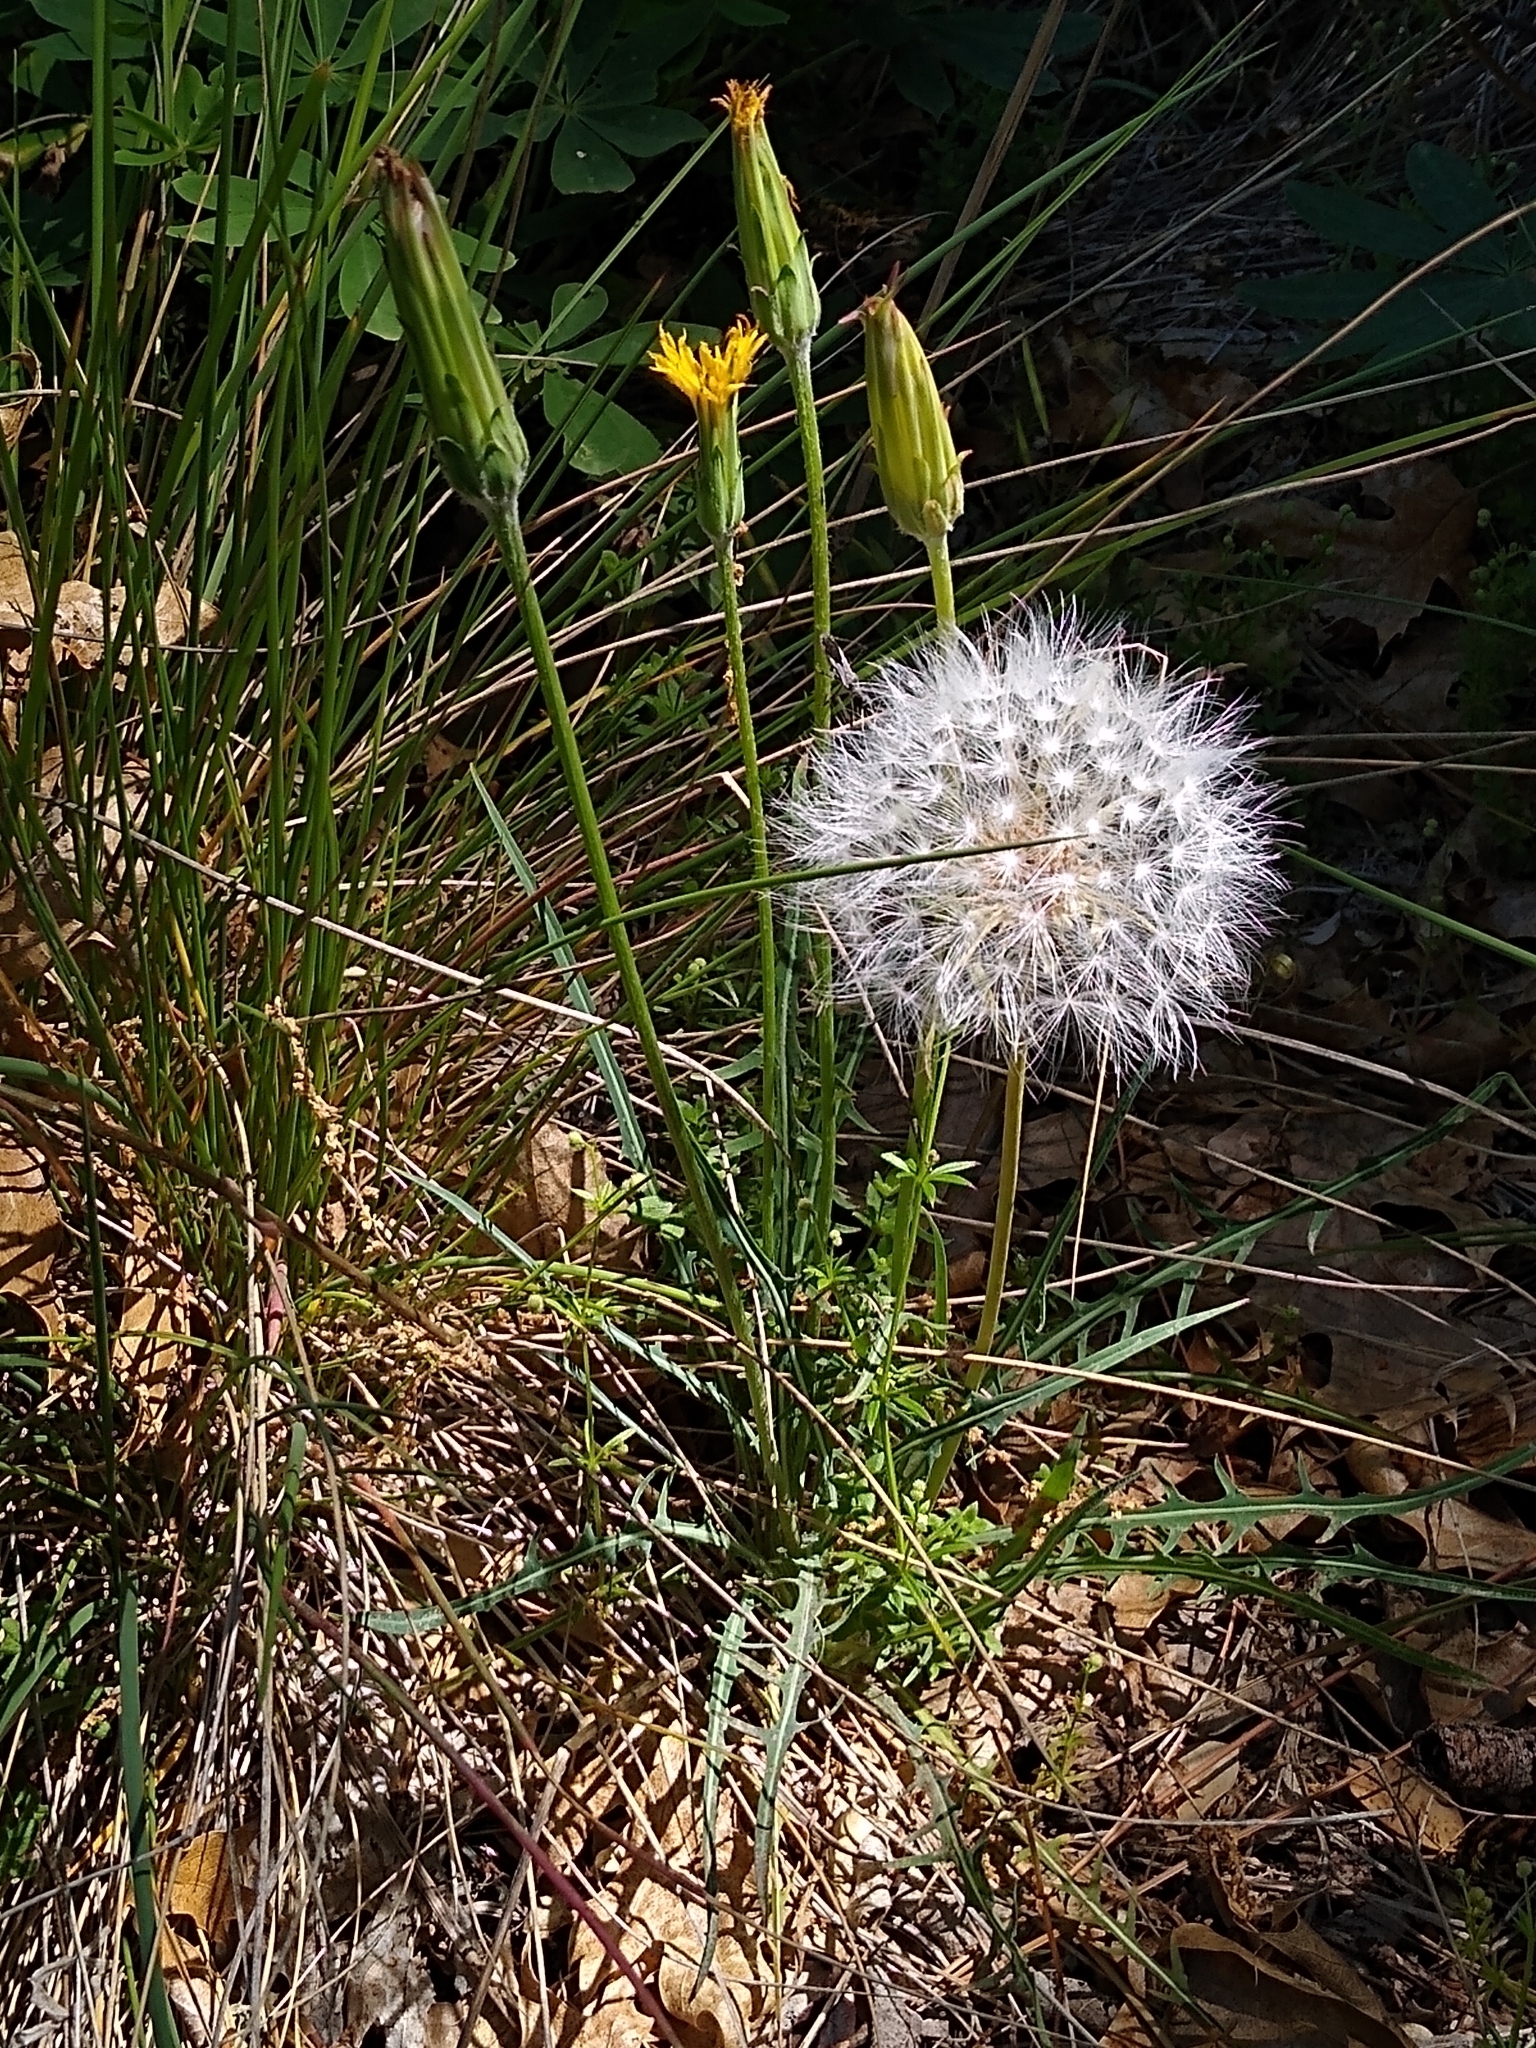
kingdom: Plantae
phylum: Tracheophyta
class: Magnoliopsida
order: Asterales
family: Asteraceae
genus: Agoseris
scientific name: Agoseris retrorsa
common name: Spearleaf agoseris
